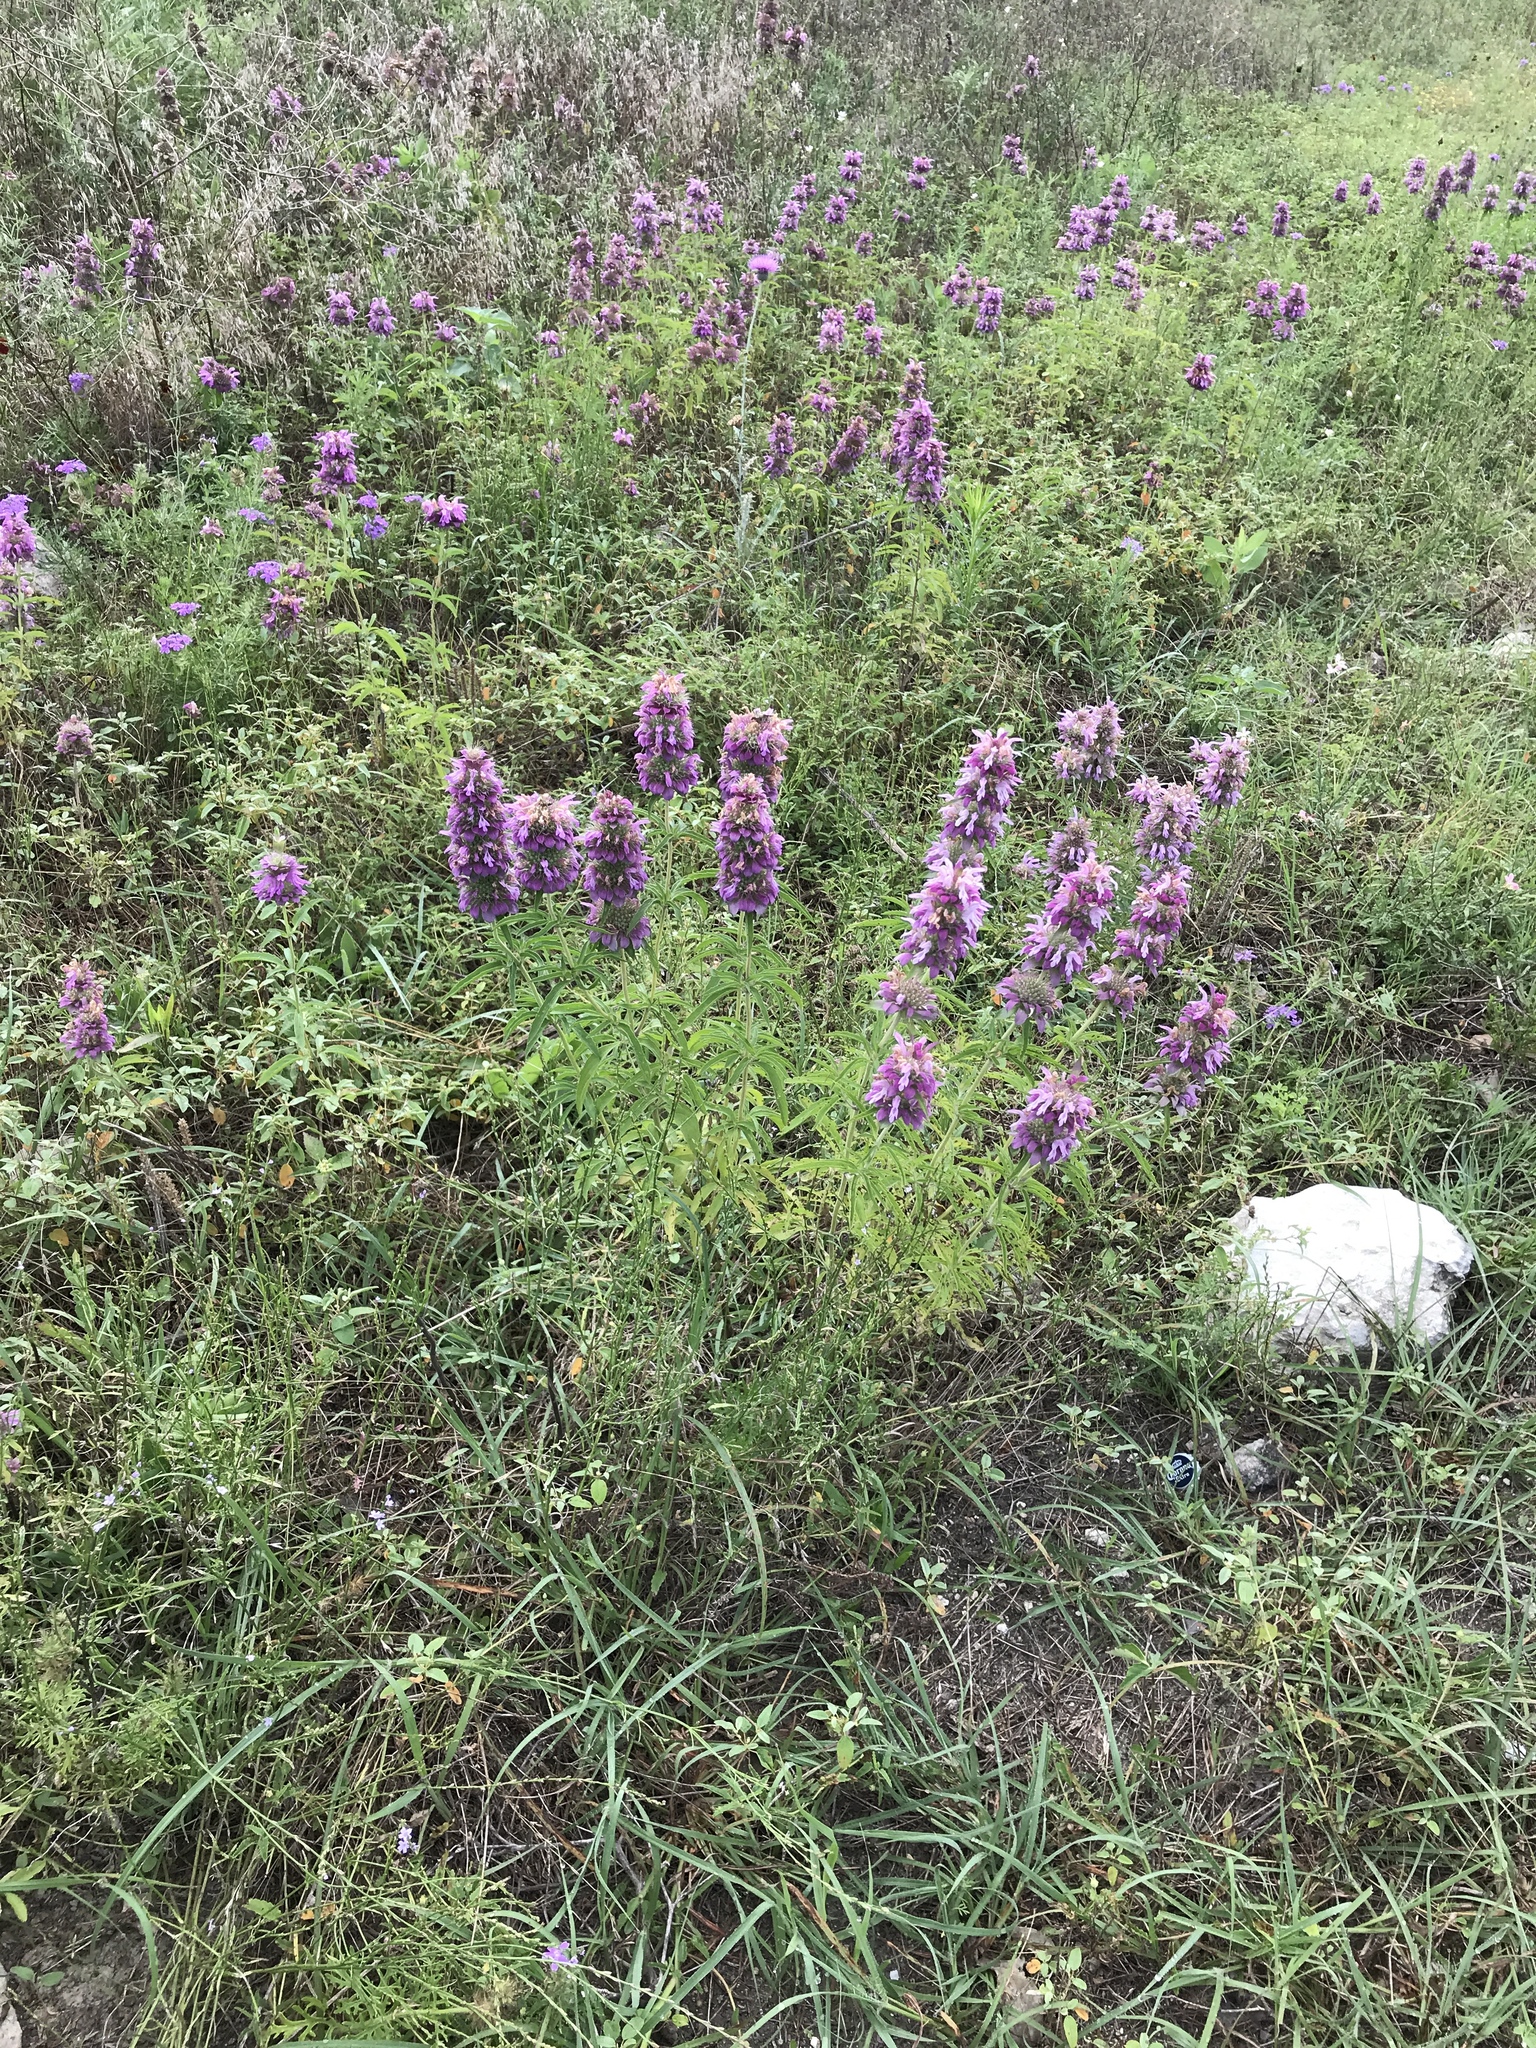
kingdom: Plantae
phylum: Tracheophyta
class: Magnoliopsida
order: Lamiales
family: Lamiaceae
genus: Monarda
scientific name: Monarda citriodora
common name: Lemon beebalm
